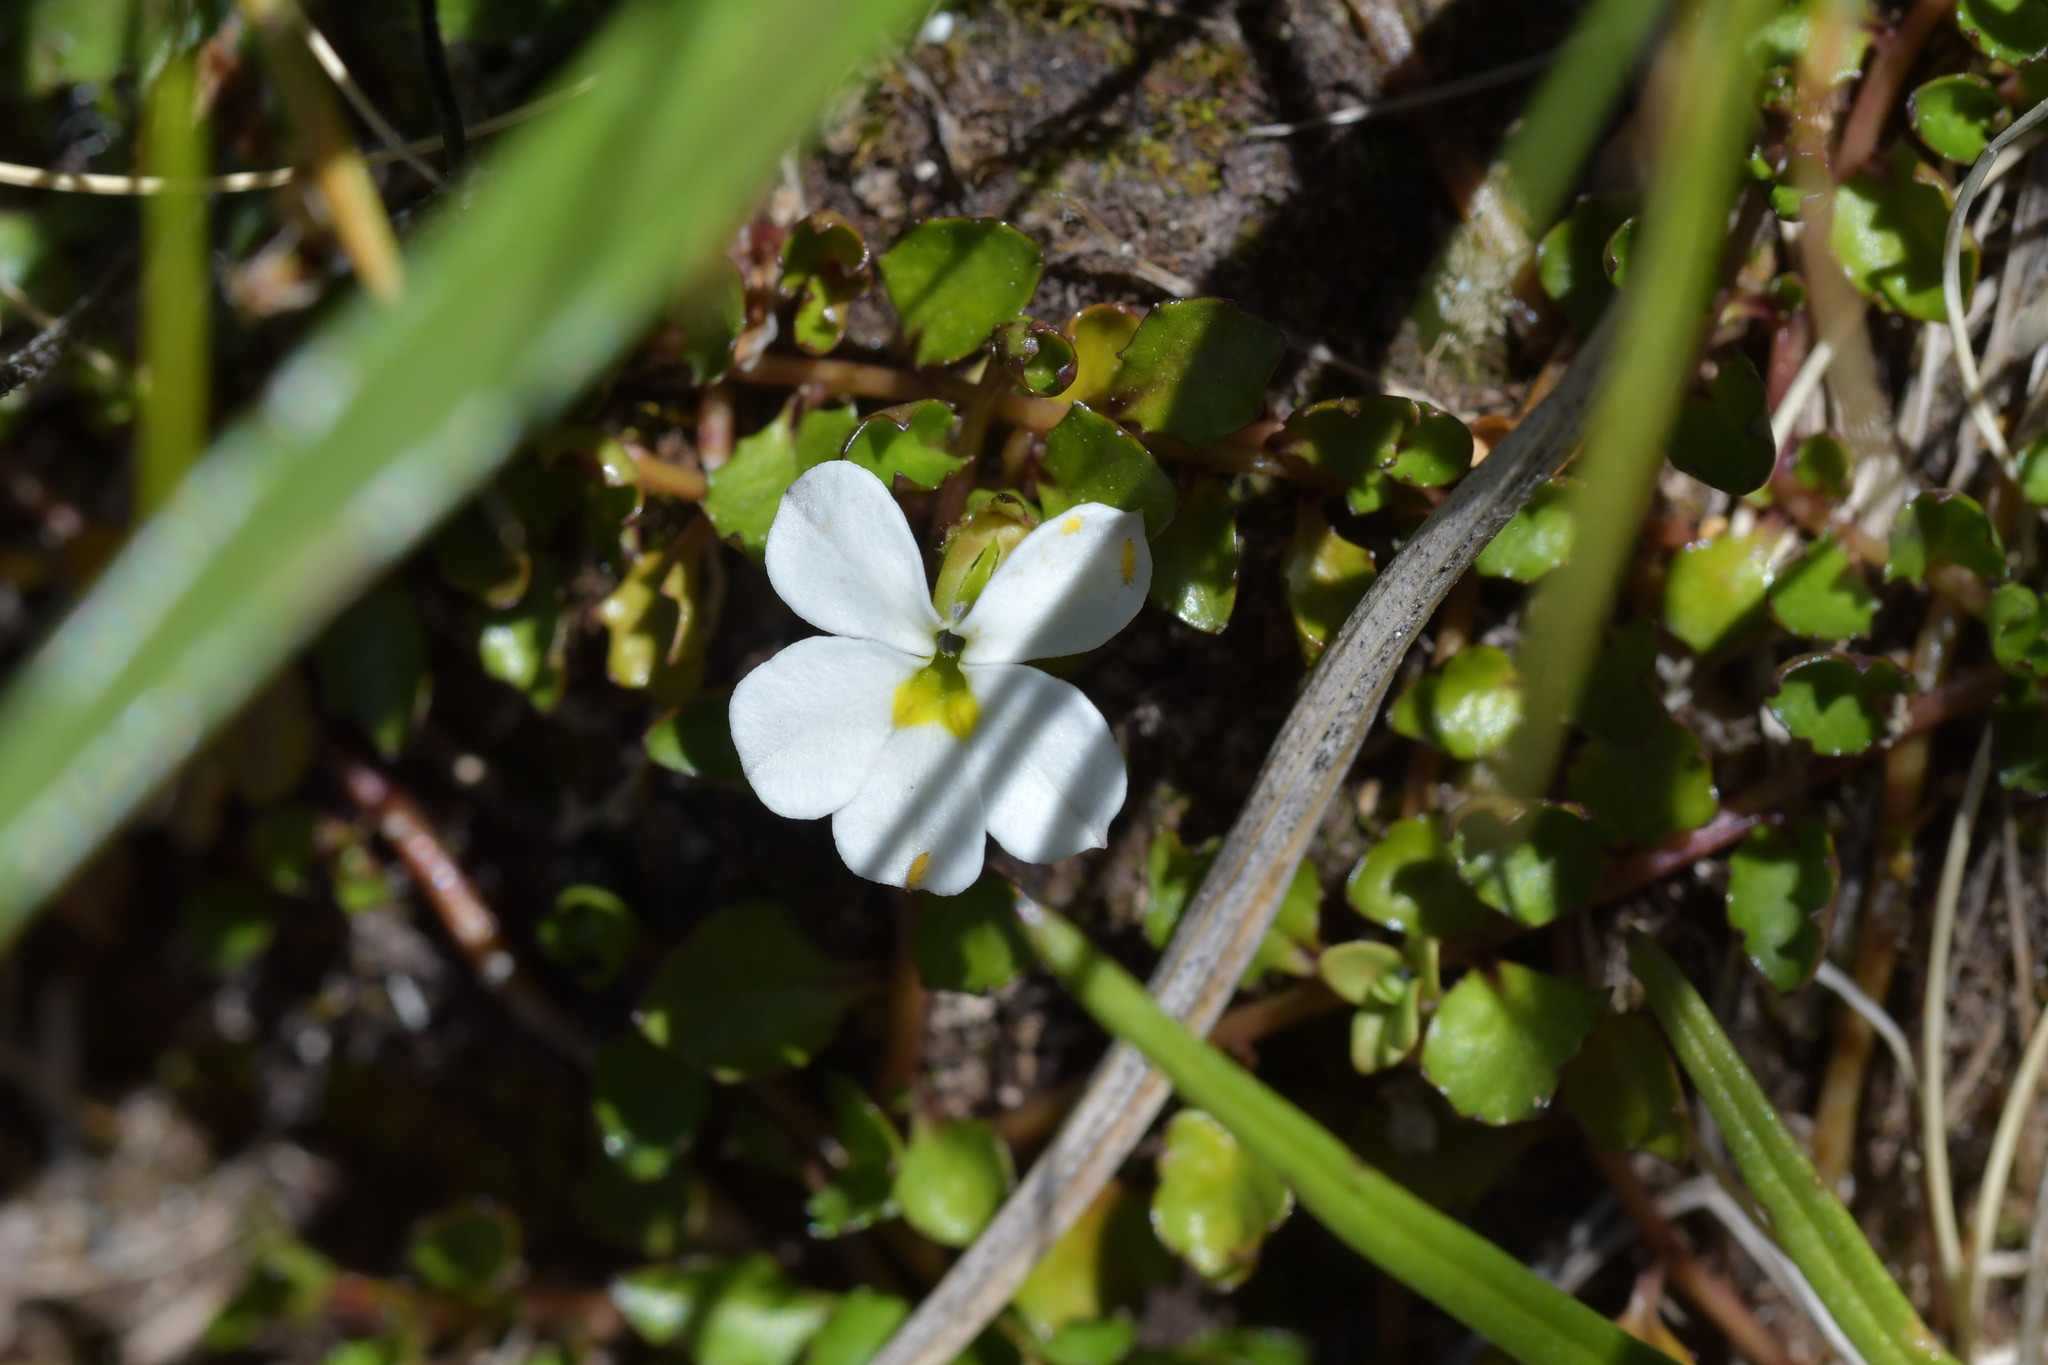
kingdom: Plantae
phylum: Tracheophyta
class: Magnoliopsida
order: Asterales
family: Campanulaceae
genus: Lobelia
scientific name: Lobelia glaberrima
